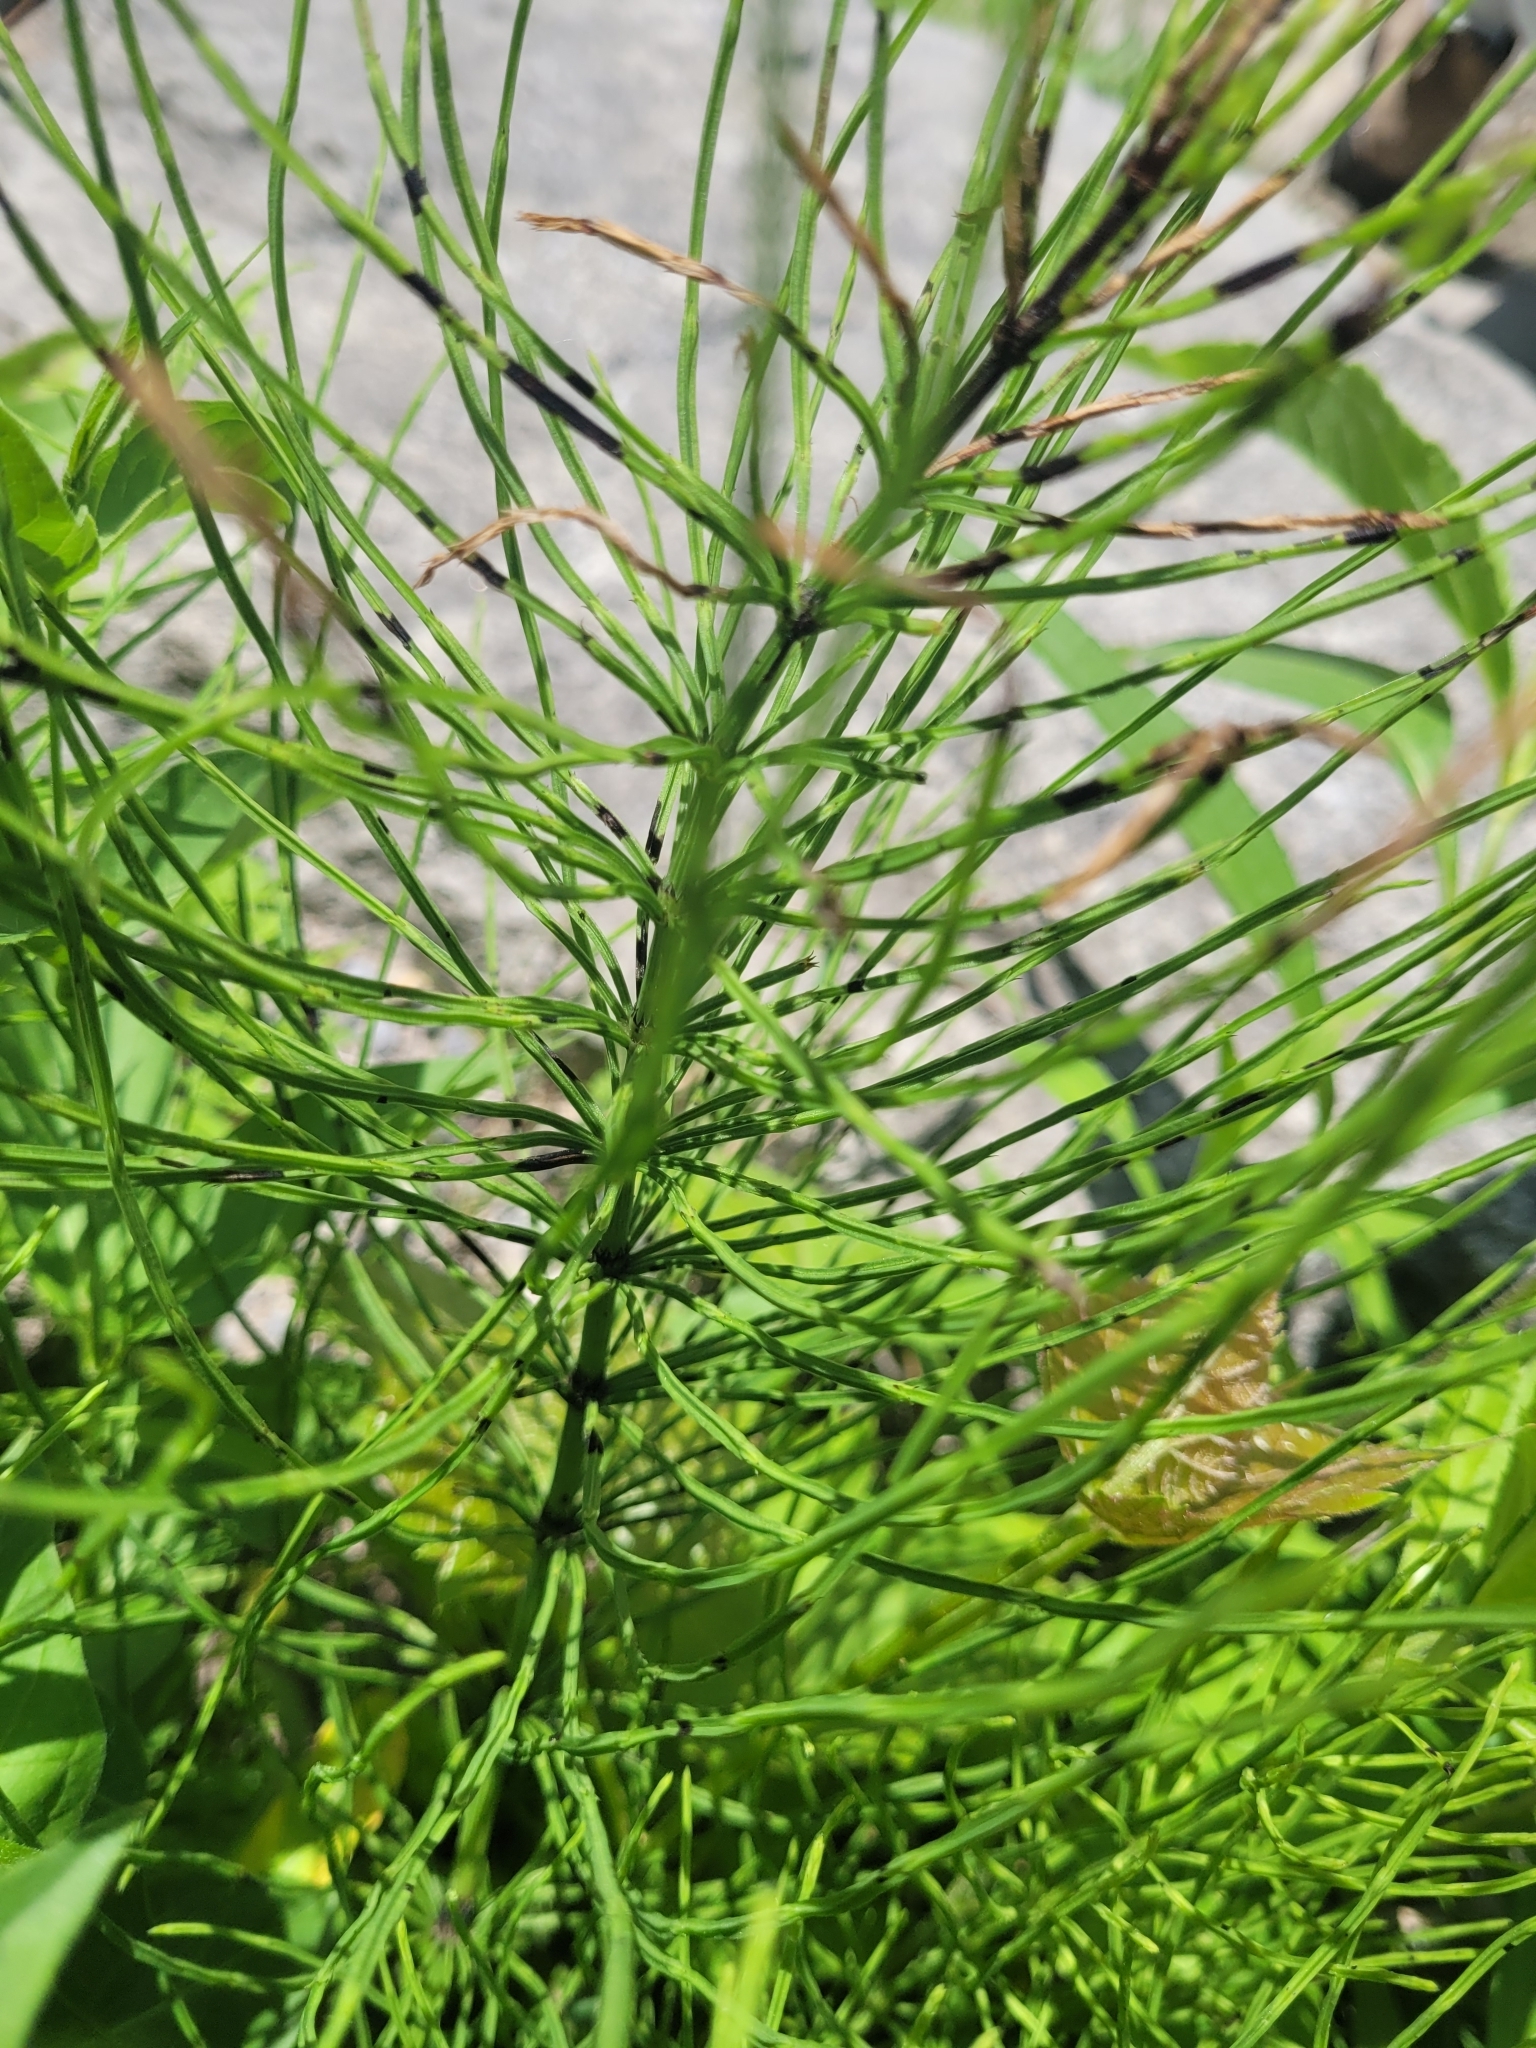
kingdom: Plantae
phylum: Tracheophyta
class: Polypodiopsida
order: Equisetales
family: Equisetaceae
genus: Equisetum
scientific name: Equisetum arvense
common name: Field horsetail
